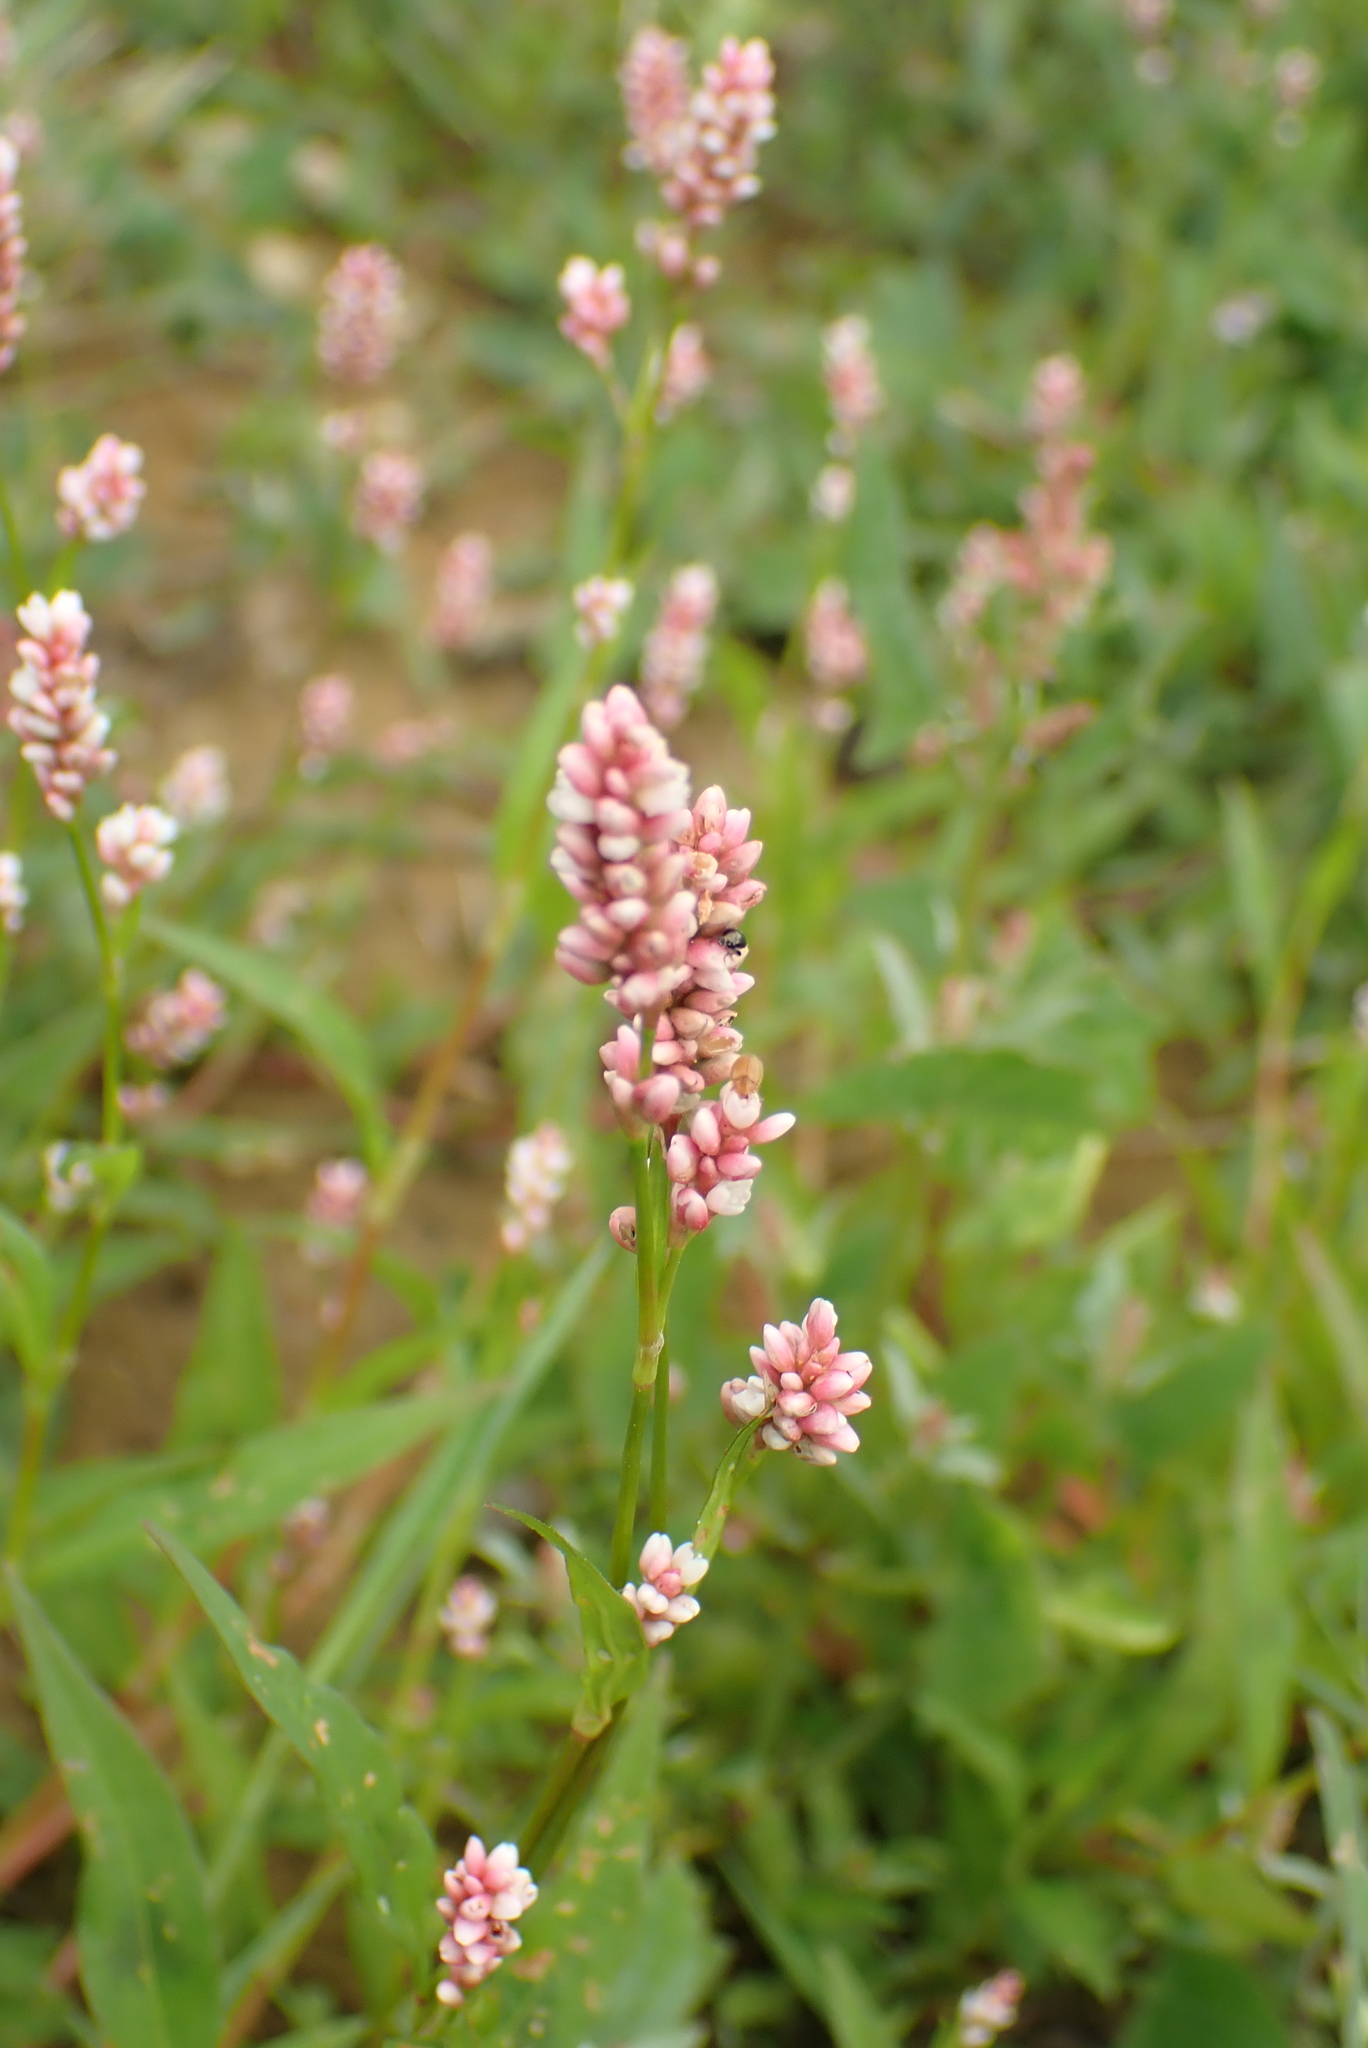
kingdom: Plantae
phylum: Tracheophyta
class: Magnoliopsida
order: Caryophyllales
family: Polygonaceae
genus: Persicaria
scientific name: Persicaria maculosa
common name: Redshank
